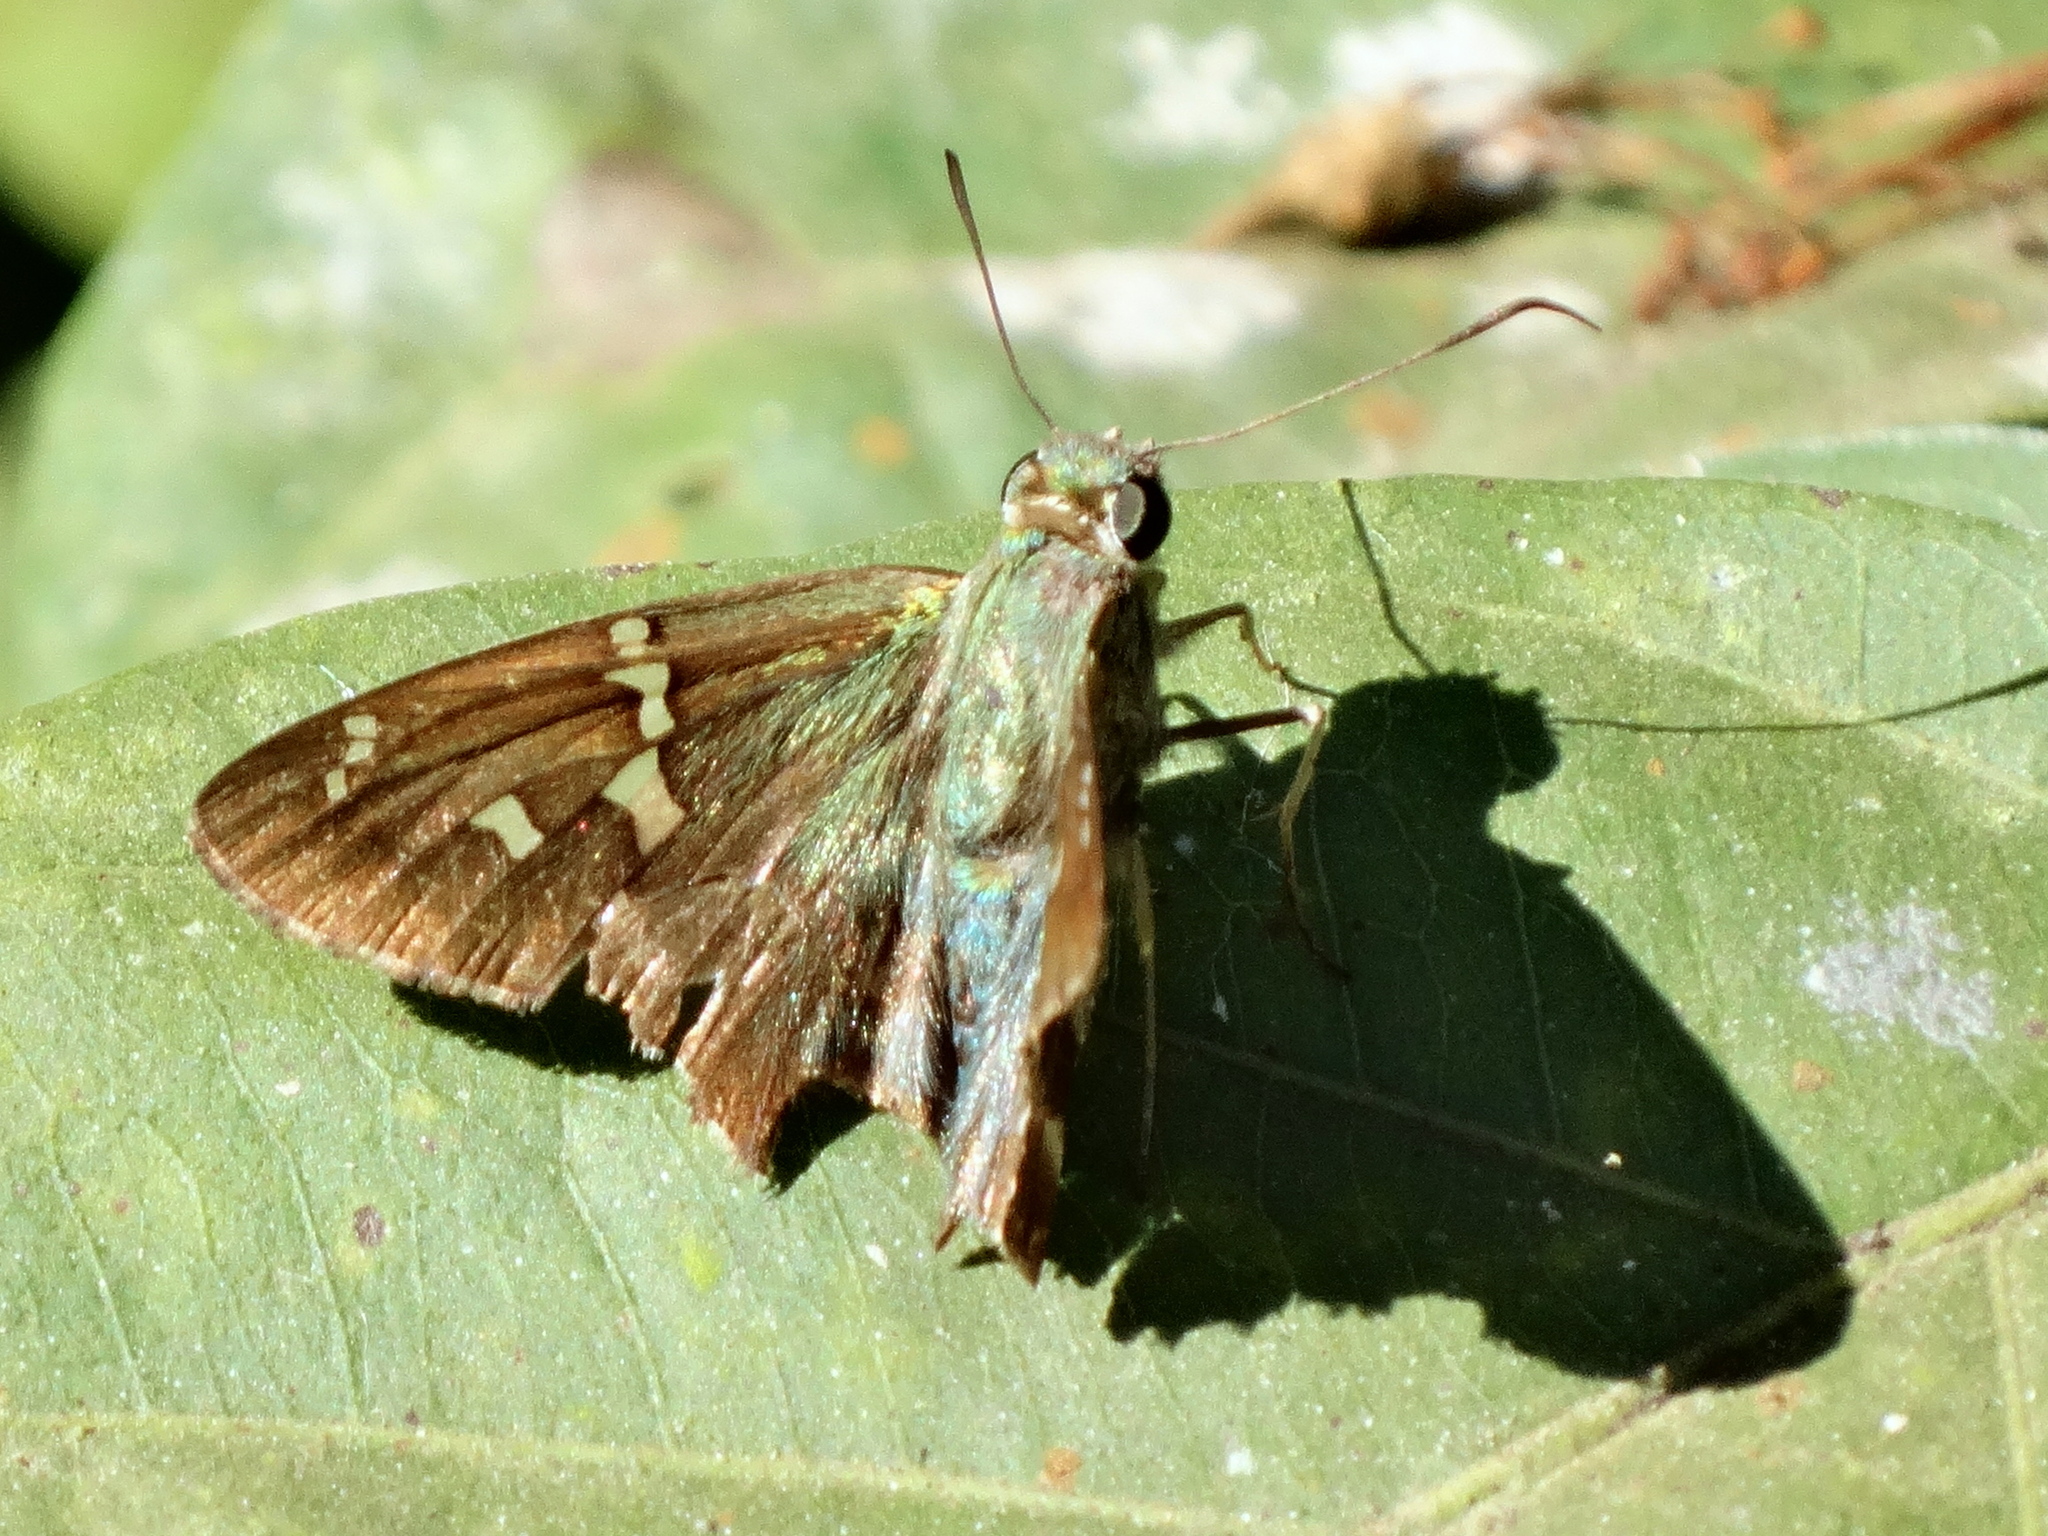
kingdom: Animalia
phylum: Arthropoda
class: Insecta
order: Lepidoptera
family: Hesperiidae
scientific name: Hesperiidae
